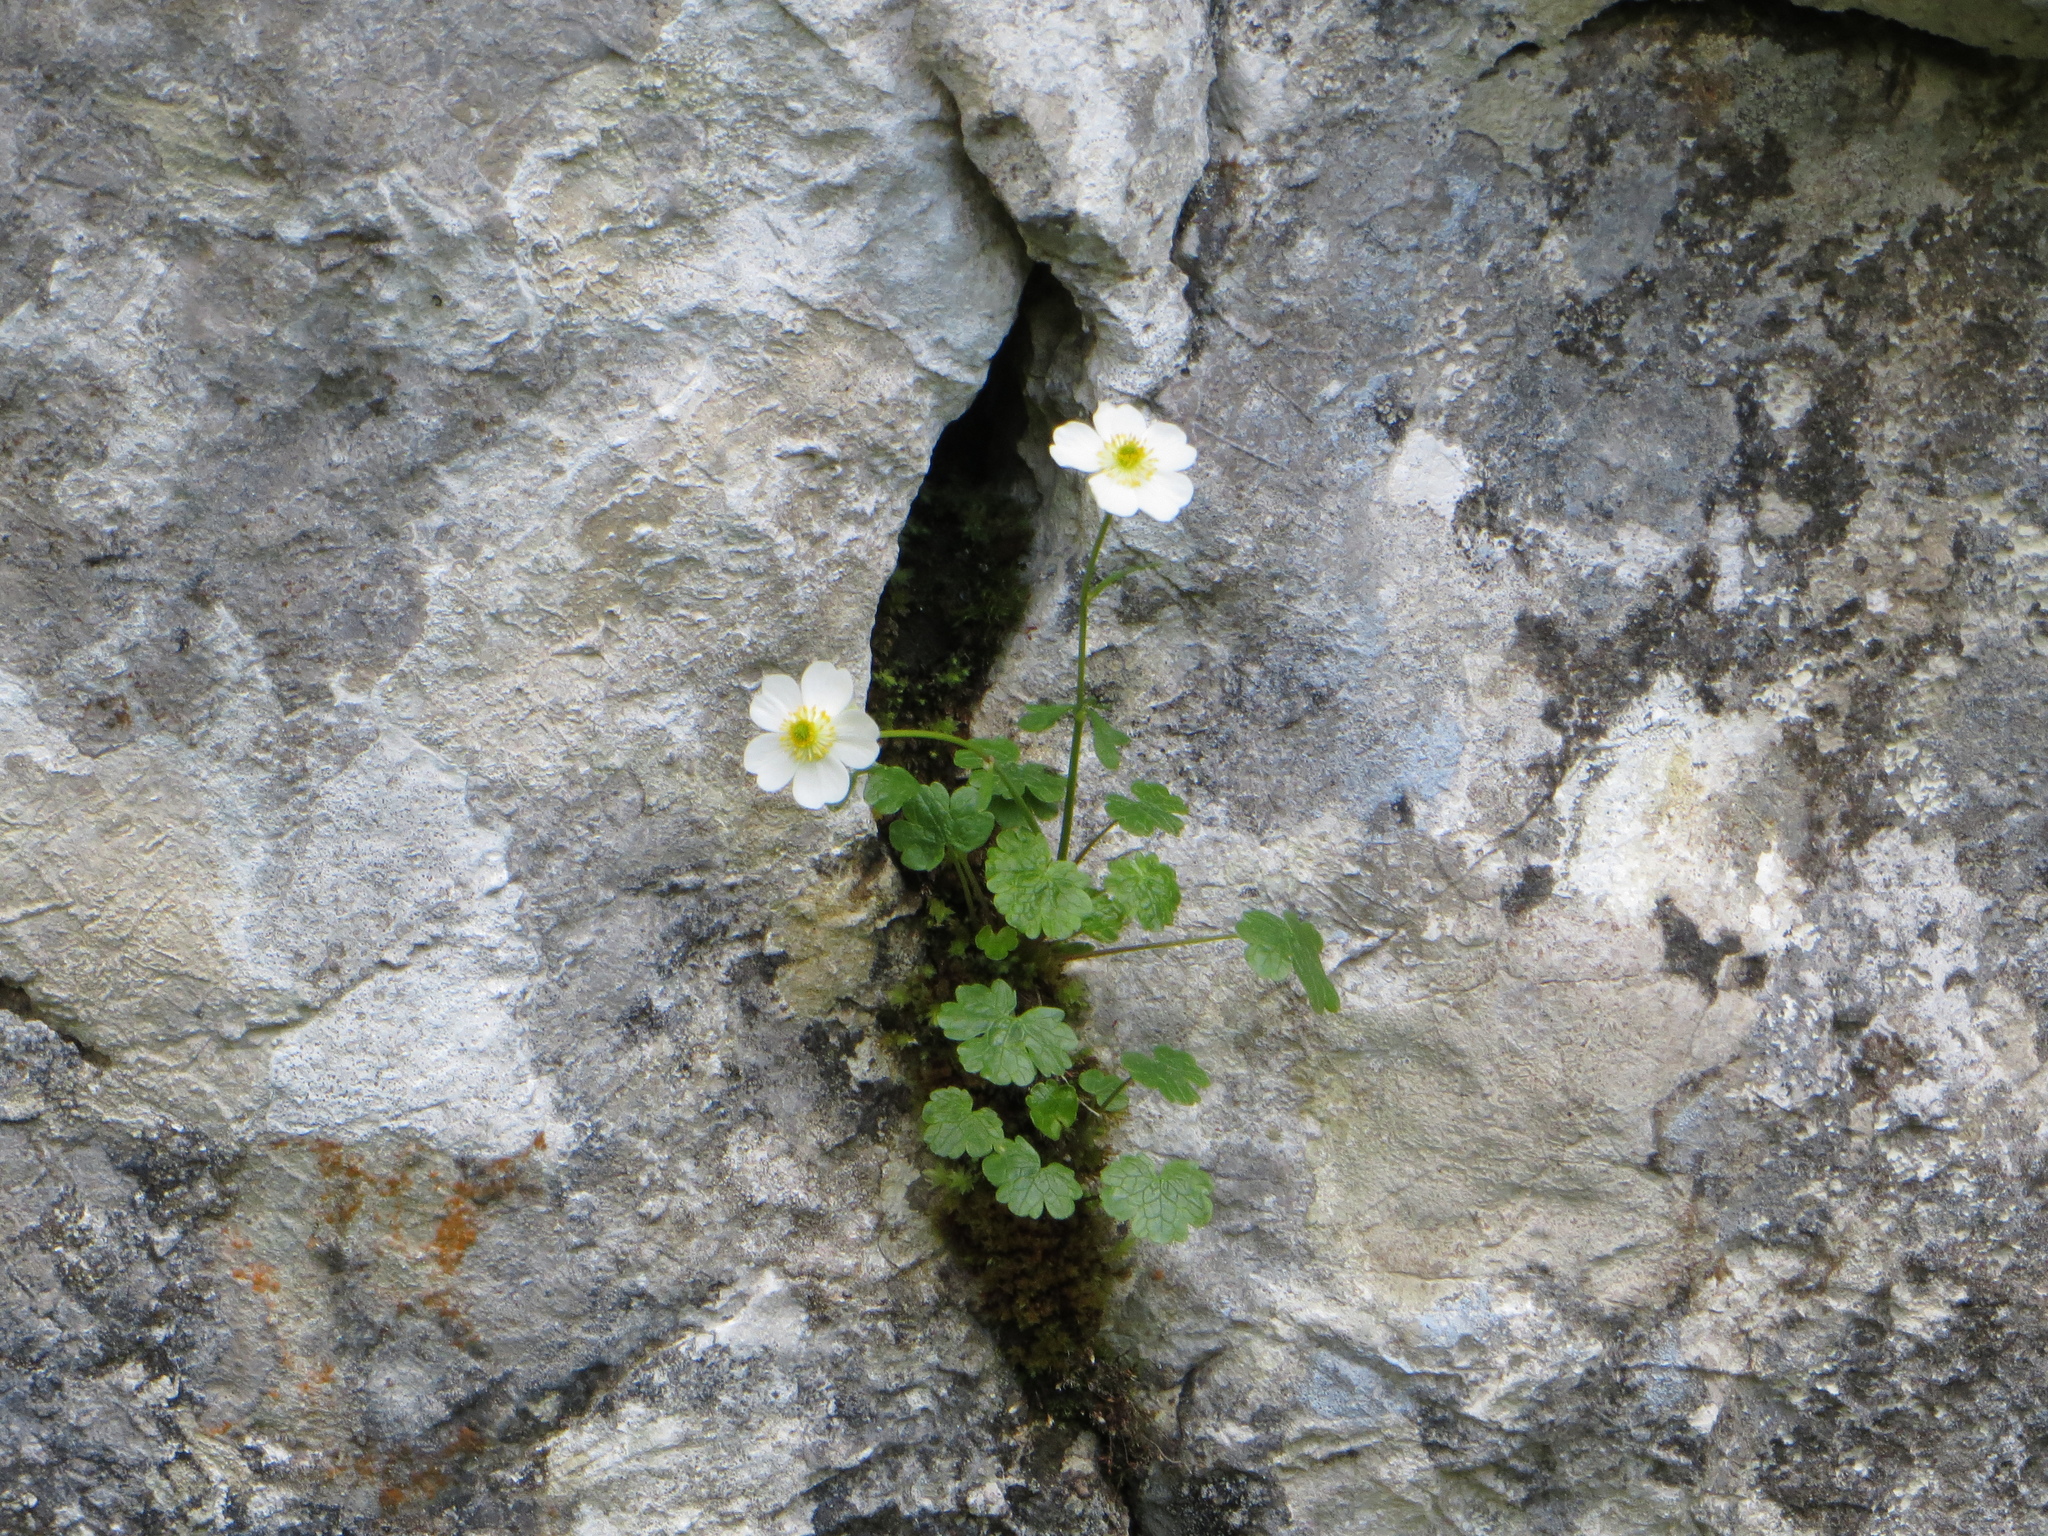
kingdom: Plantae
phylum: Tracheophyta
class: Magnoliopsida
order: Ranunculales
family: Ranunculaceae
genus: Ranunculus
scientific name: Ranunculus alpestris
